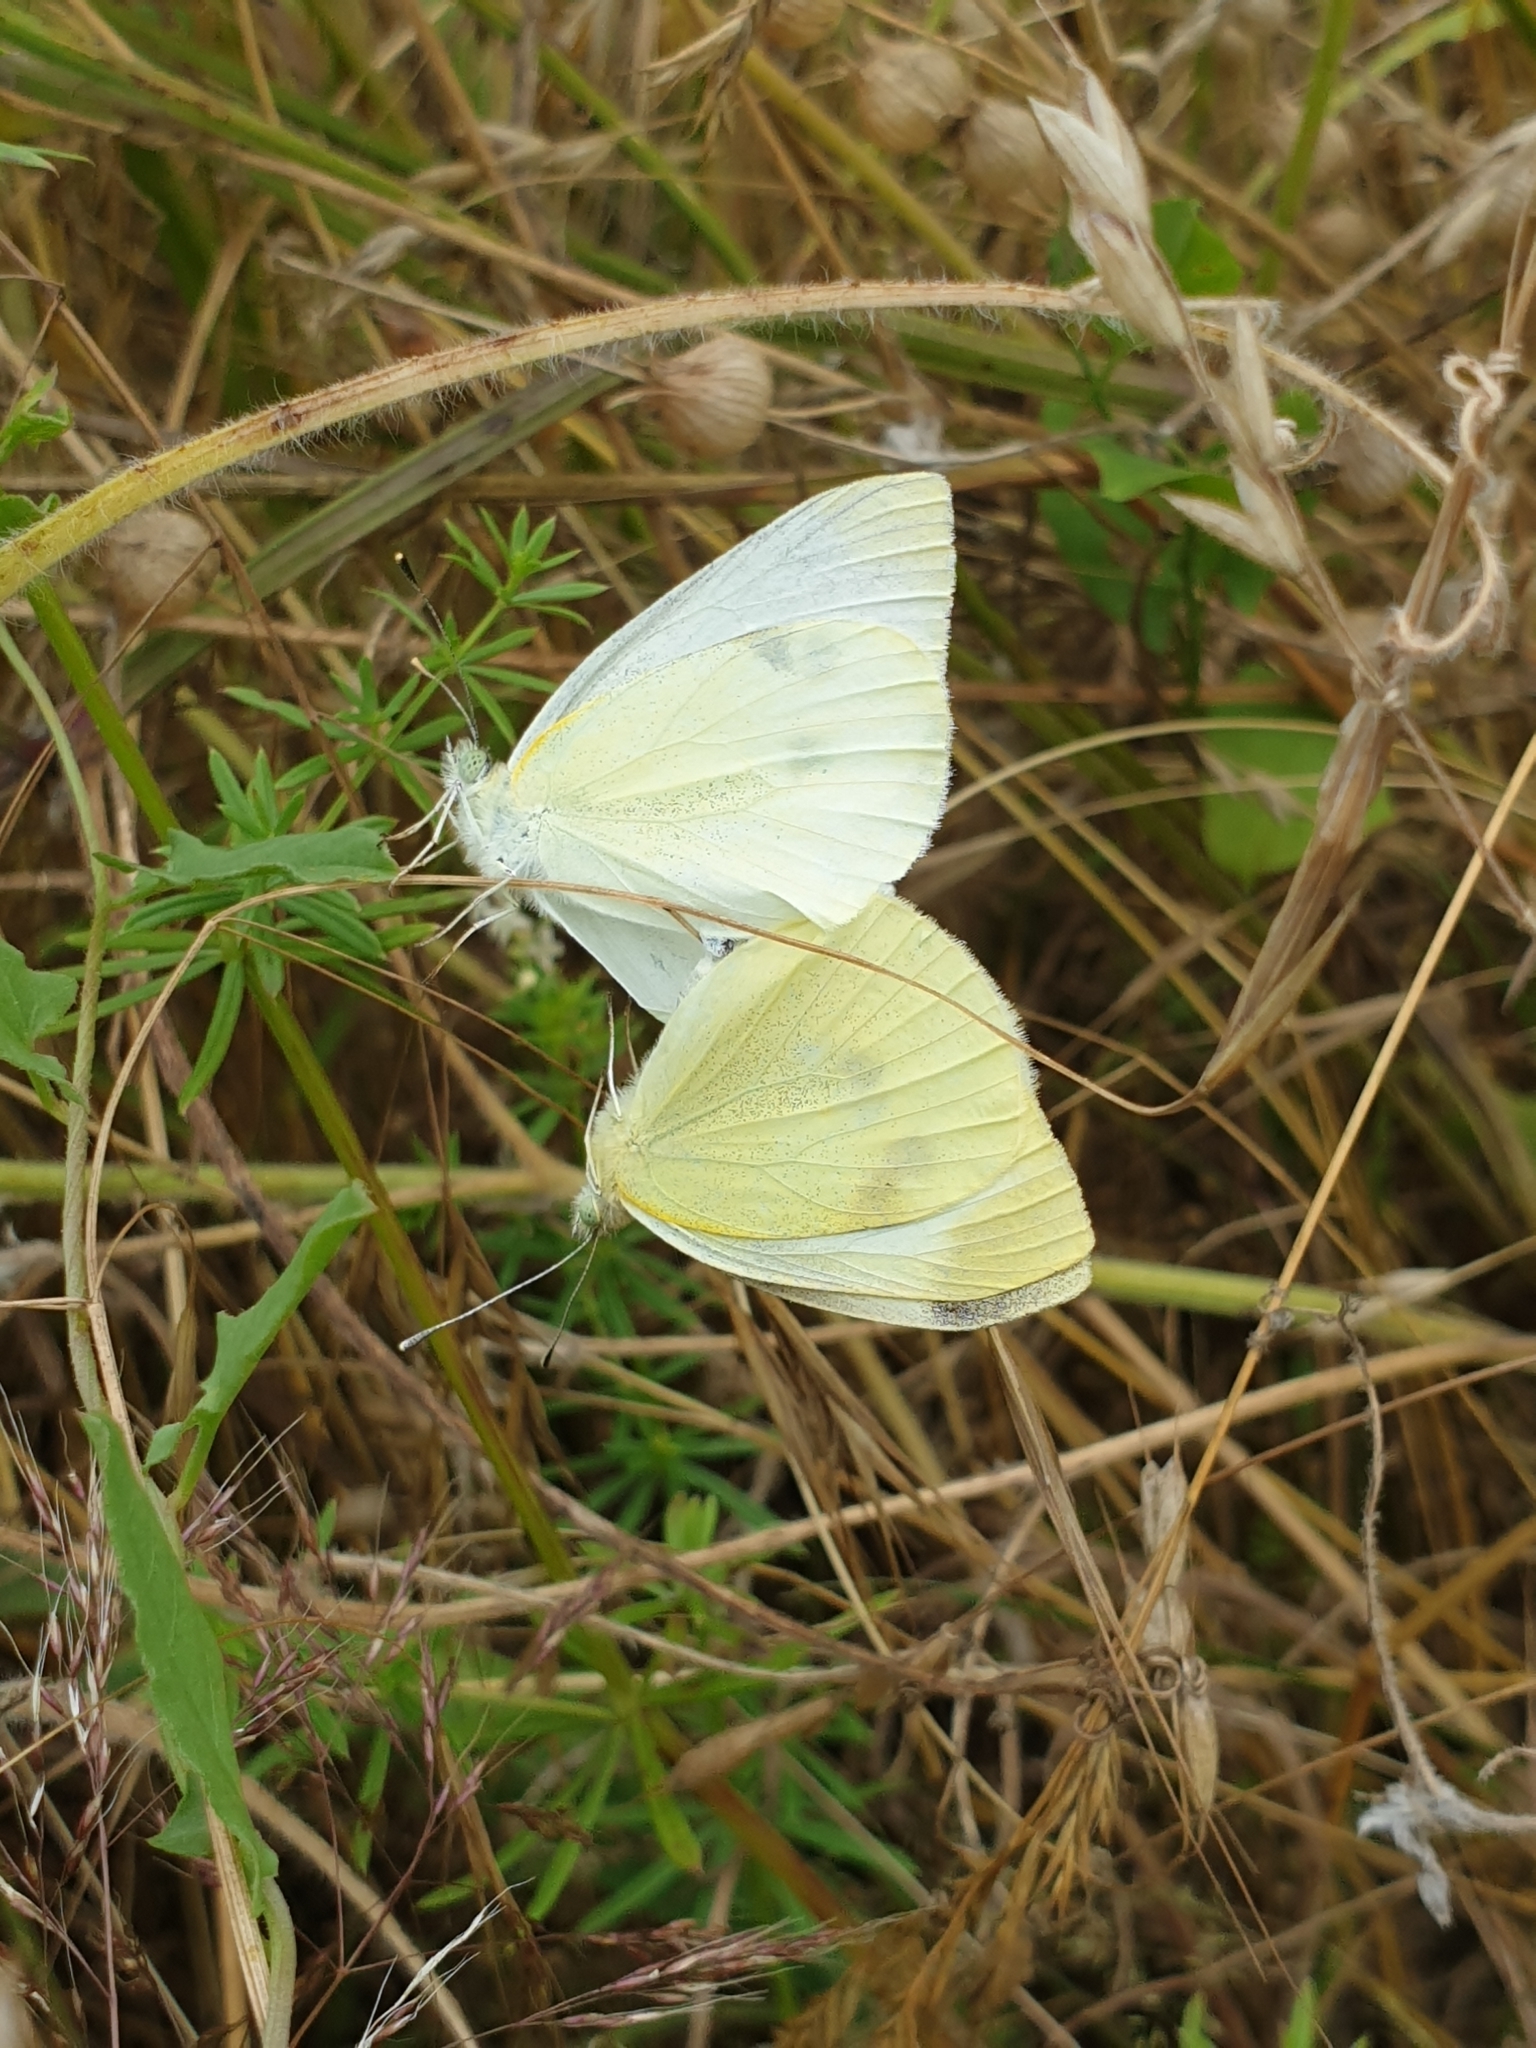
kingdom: Animalia
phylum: Arthropoda
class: Insecta
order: Lepidoptera
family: Pieridae
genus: Pieris
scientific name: Pieris rapae
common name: Small white
